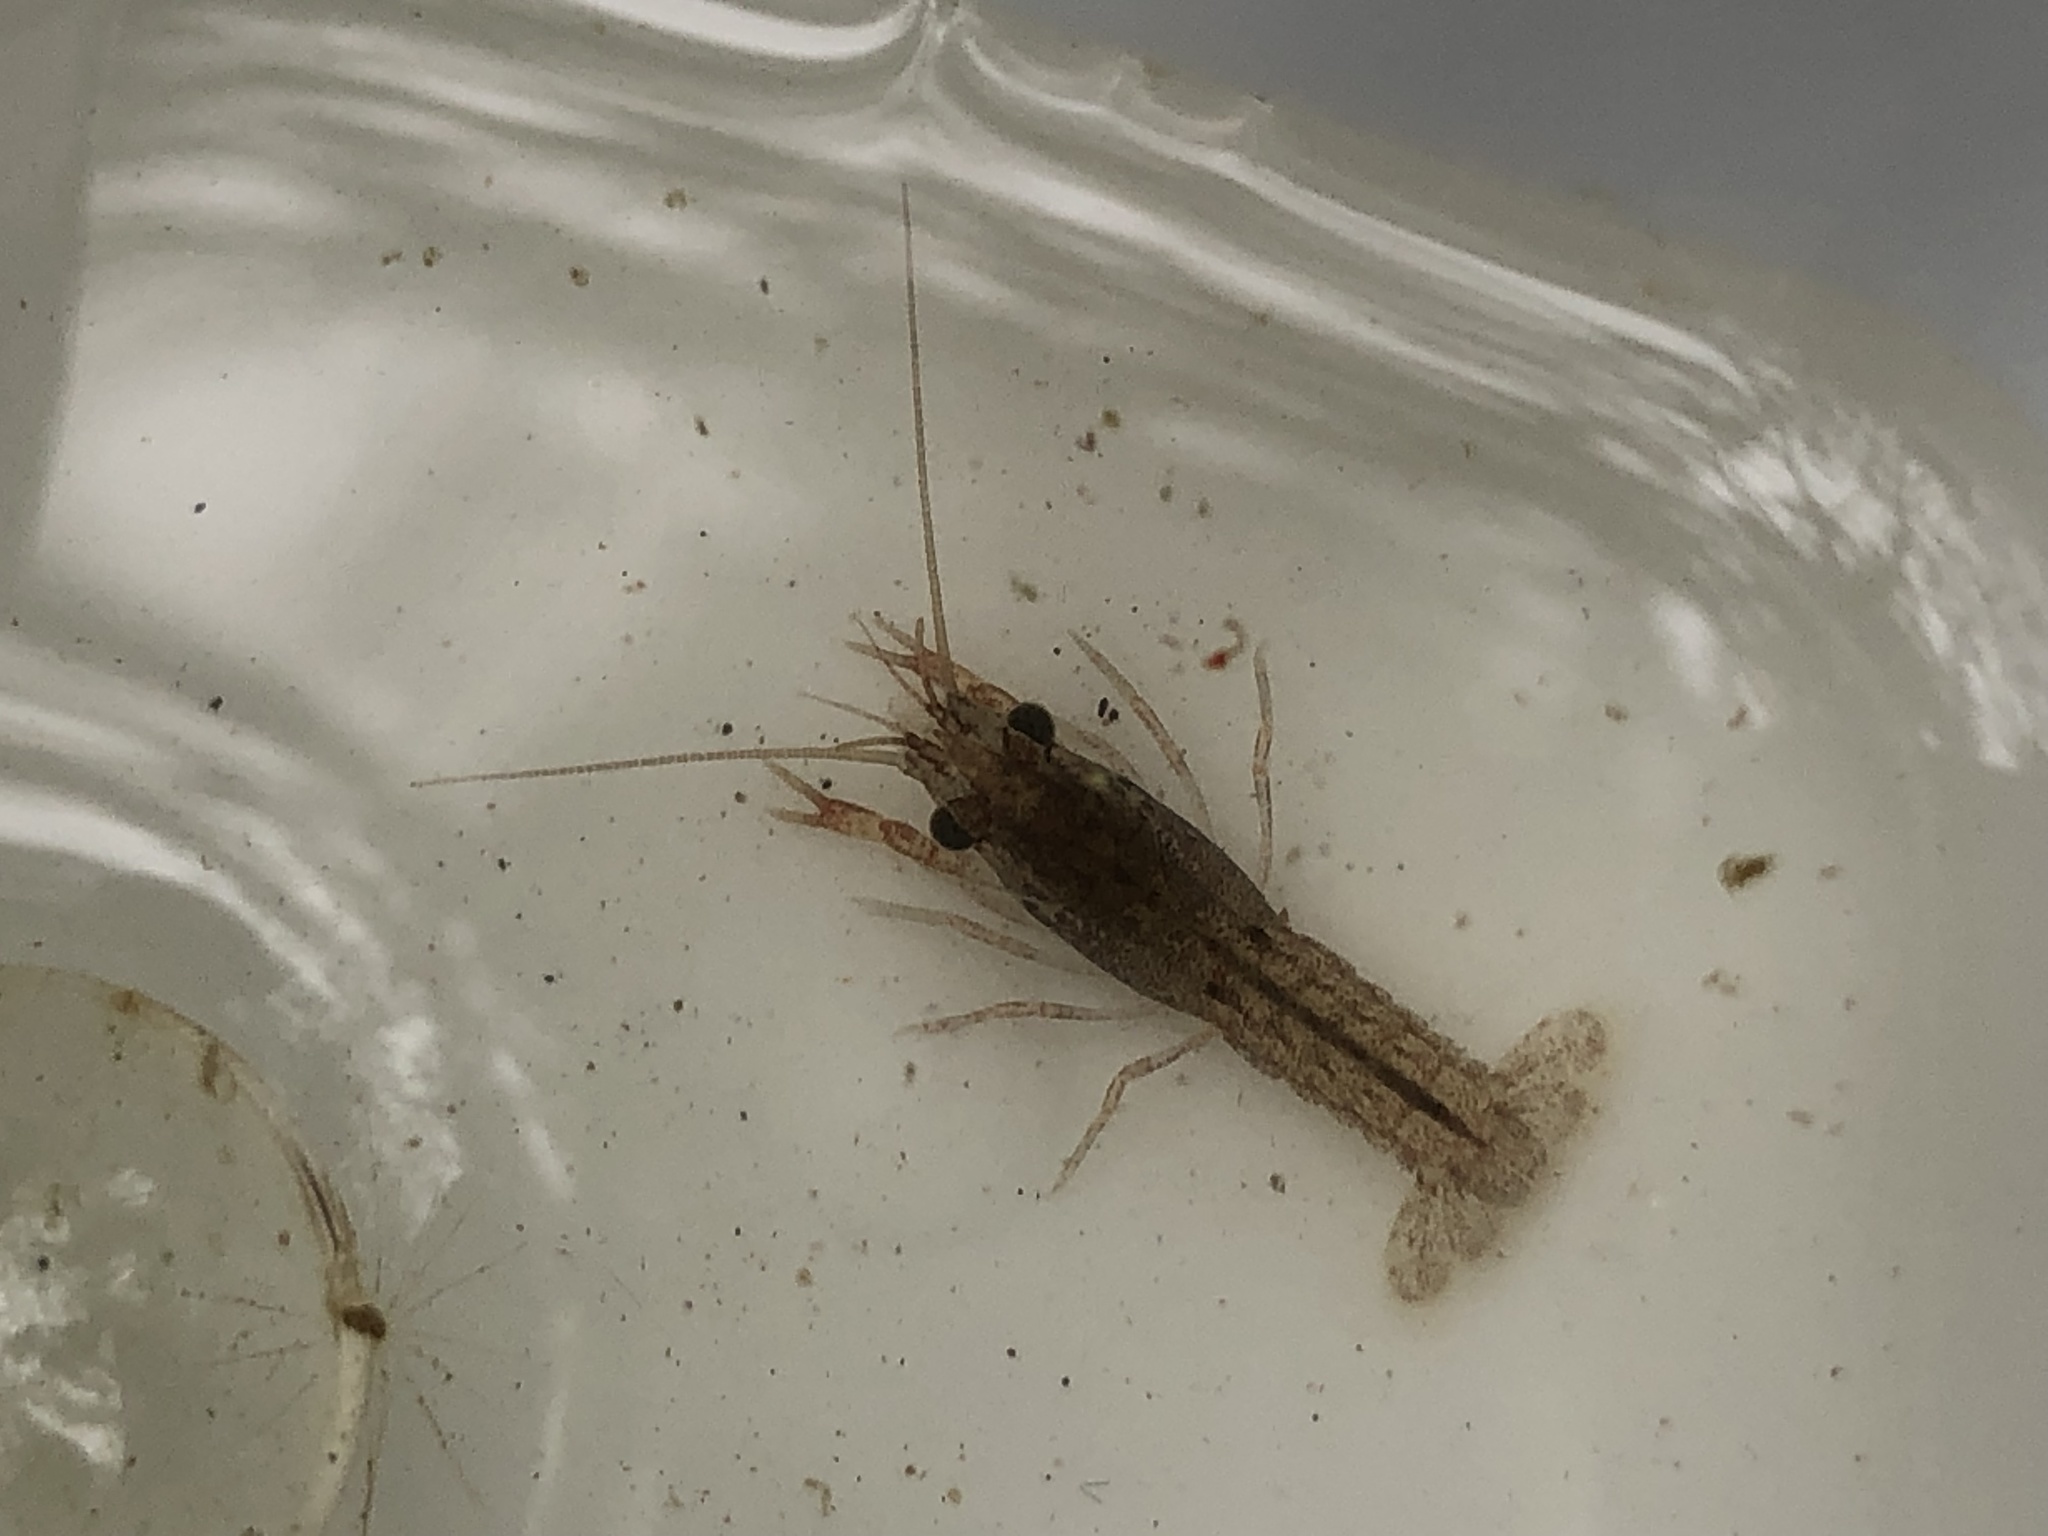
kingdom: Animalia
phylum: Arthropoda
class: Malacostraca
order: Decapoda
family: Cambaridae
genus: Procambarus
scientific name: Procambarus clarkii
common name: Red swamp crayfish
